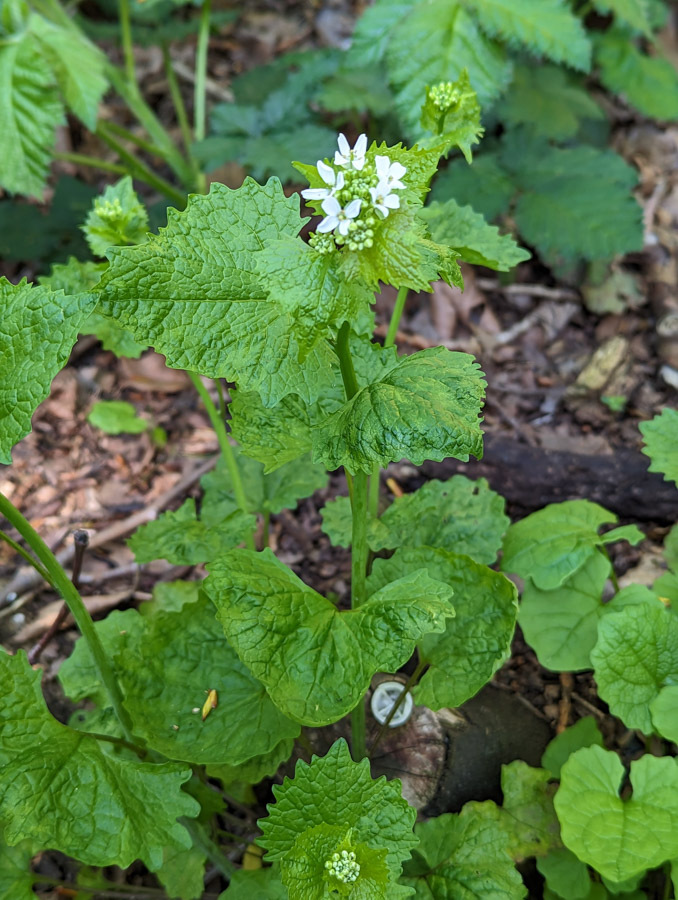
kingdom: Plantae
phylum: Tracheophyta
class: Magnoliopsida
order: Brassicales
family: Brassicaceae
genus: Alliaria
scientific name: Alliaria petiolata
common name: Garlic mustard
